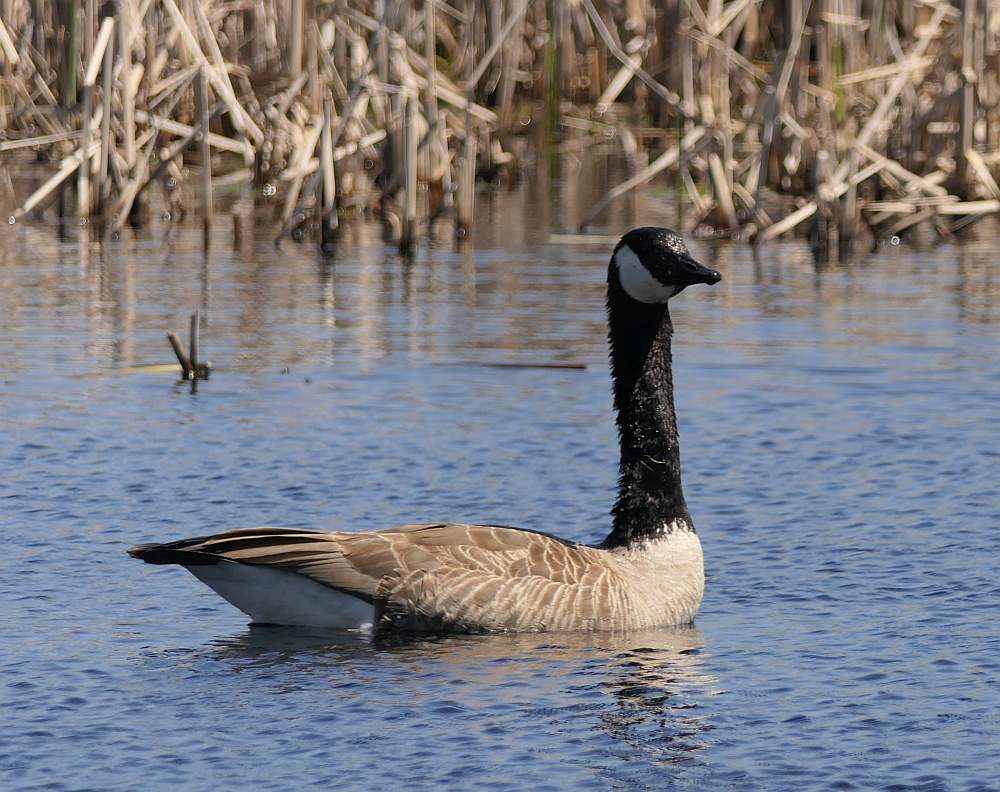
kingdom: Animalia
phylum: Chordata
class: Aves
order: Anseriformes
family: Anatidae
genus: Branta
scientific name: Branta canadensis
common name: Canada goose
